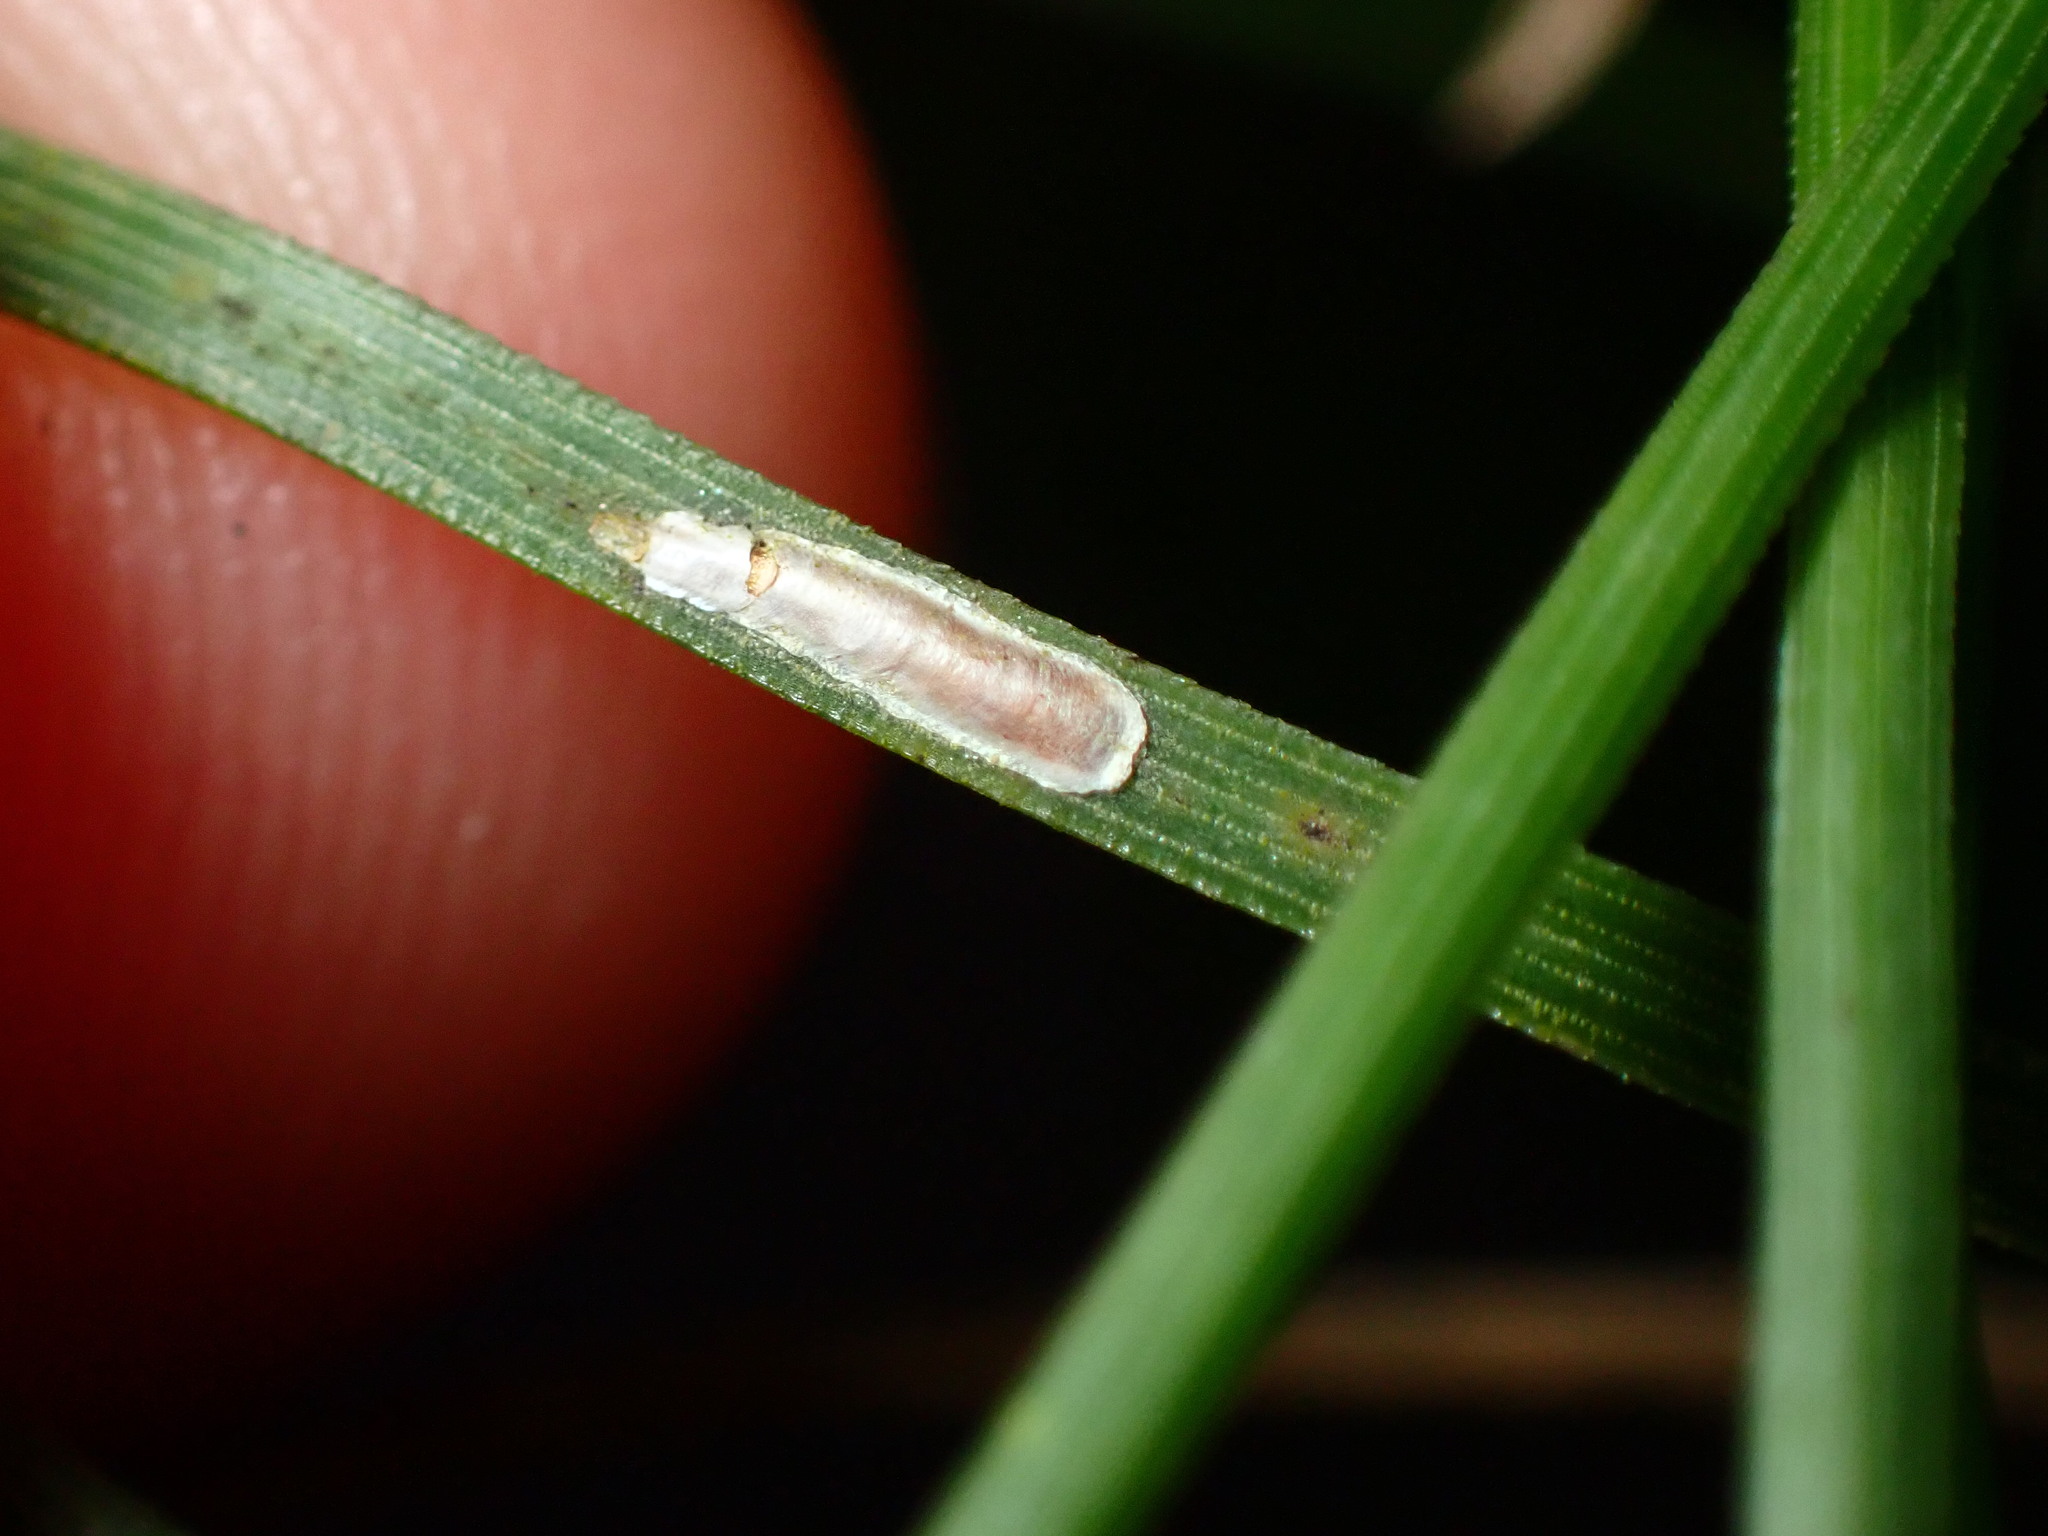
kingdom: Animalia
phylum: Arthropoda
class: Insecta
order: Hemiptera
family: Diaspididae
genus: Chionaspis
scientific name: Chionaspis pinifoliae
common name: Pine leaf scale
